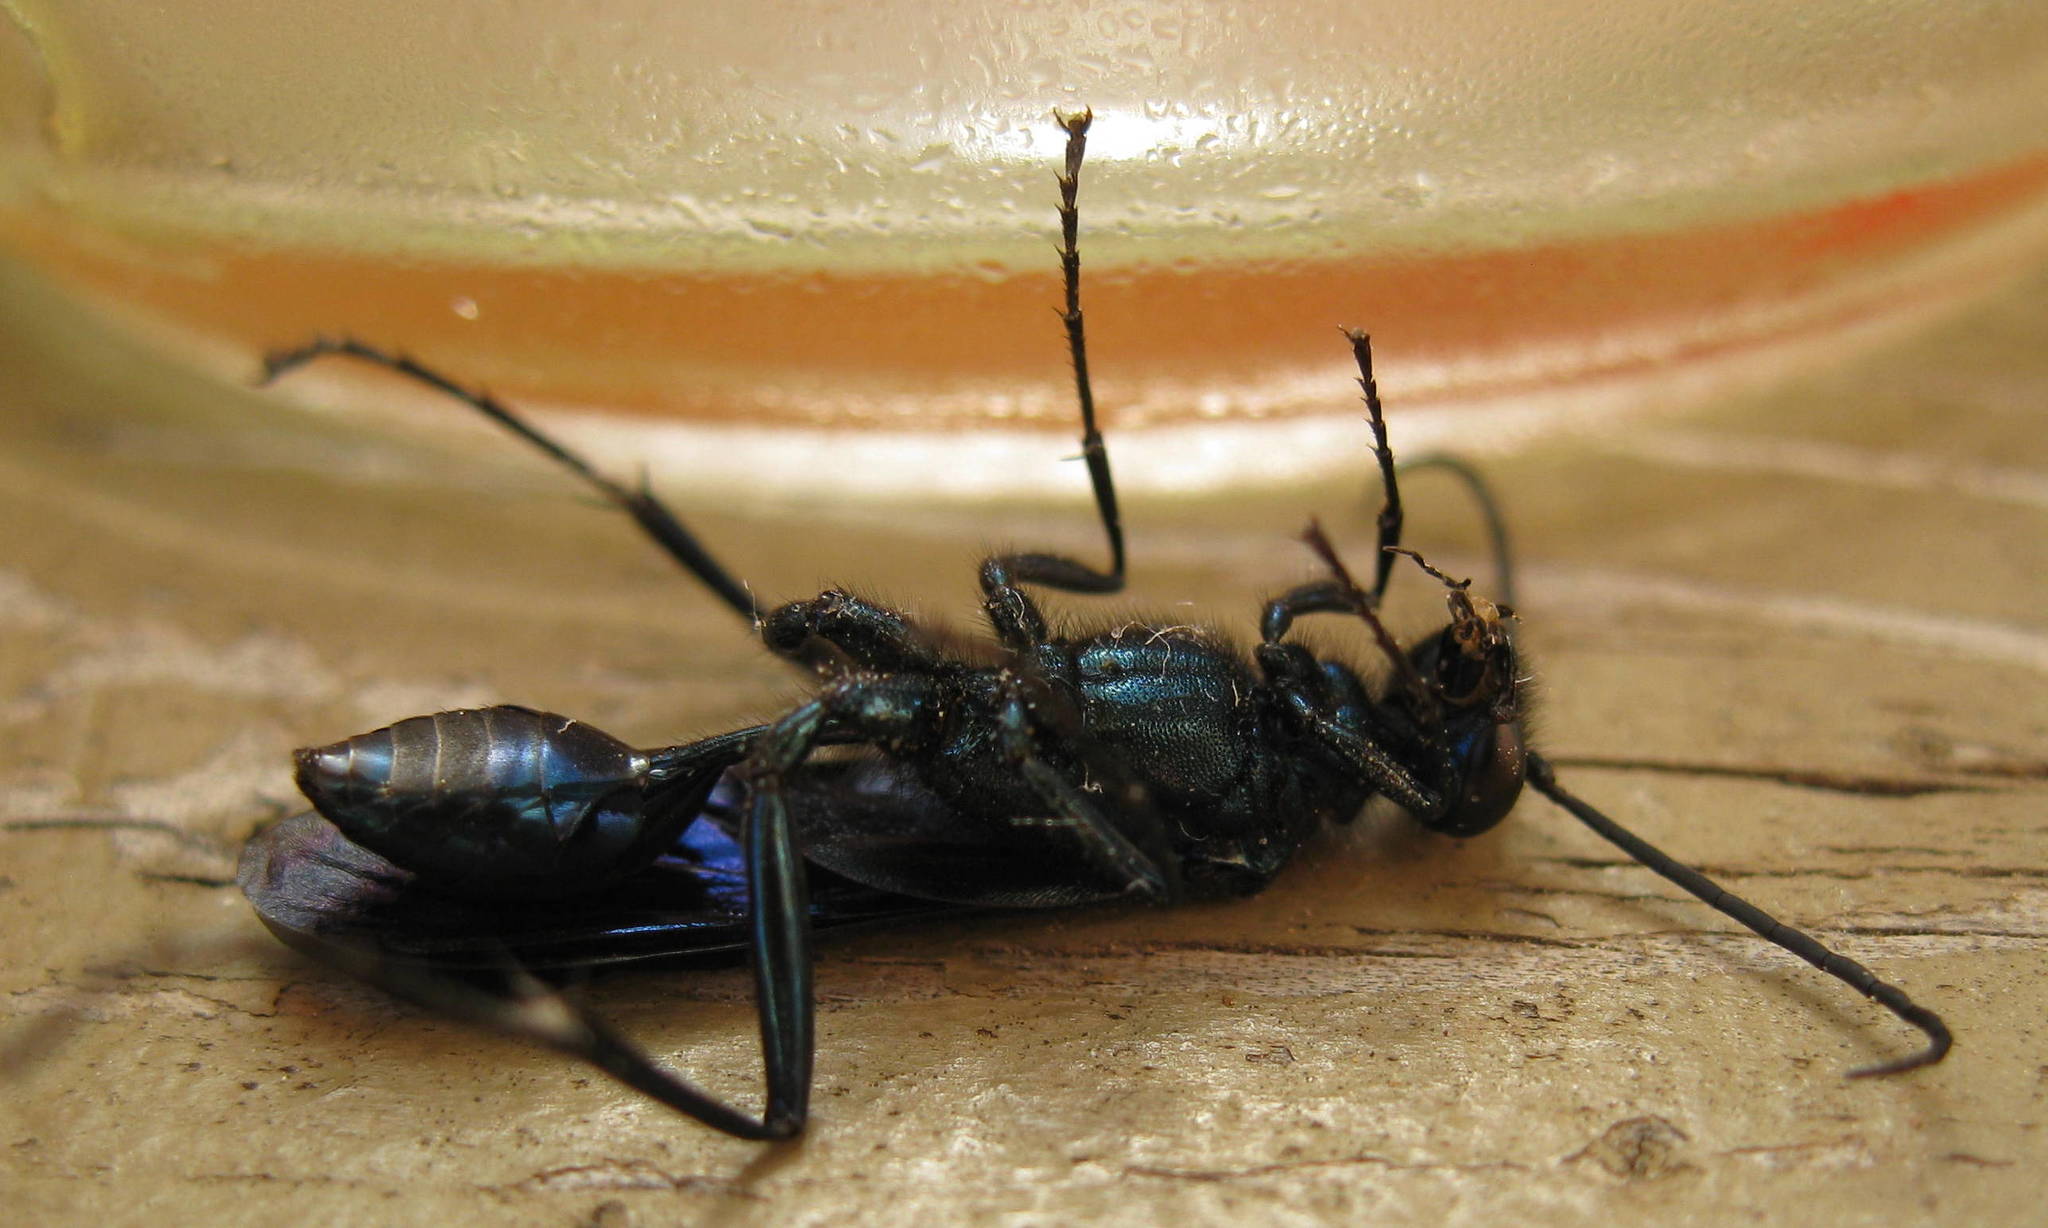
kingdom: Animalia
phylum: Arthropoda
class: Insecta
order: Hymenoptera
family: Sphecidae
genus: Chalybion
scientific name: Chalybion californicum
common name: Mud dauber
